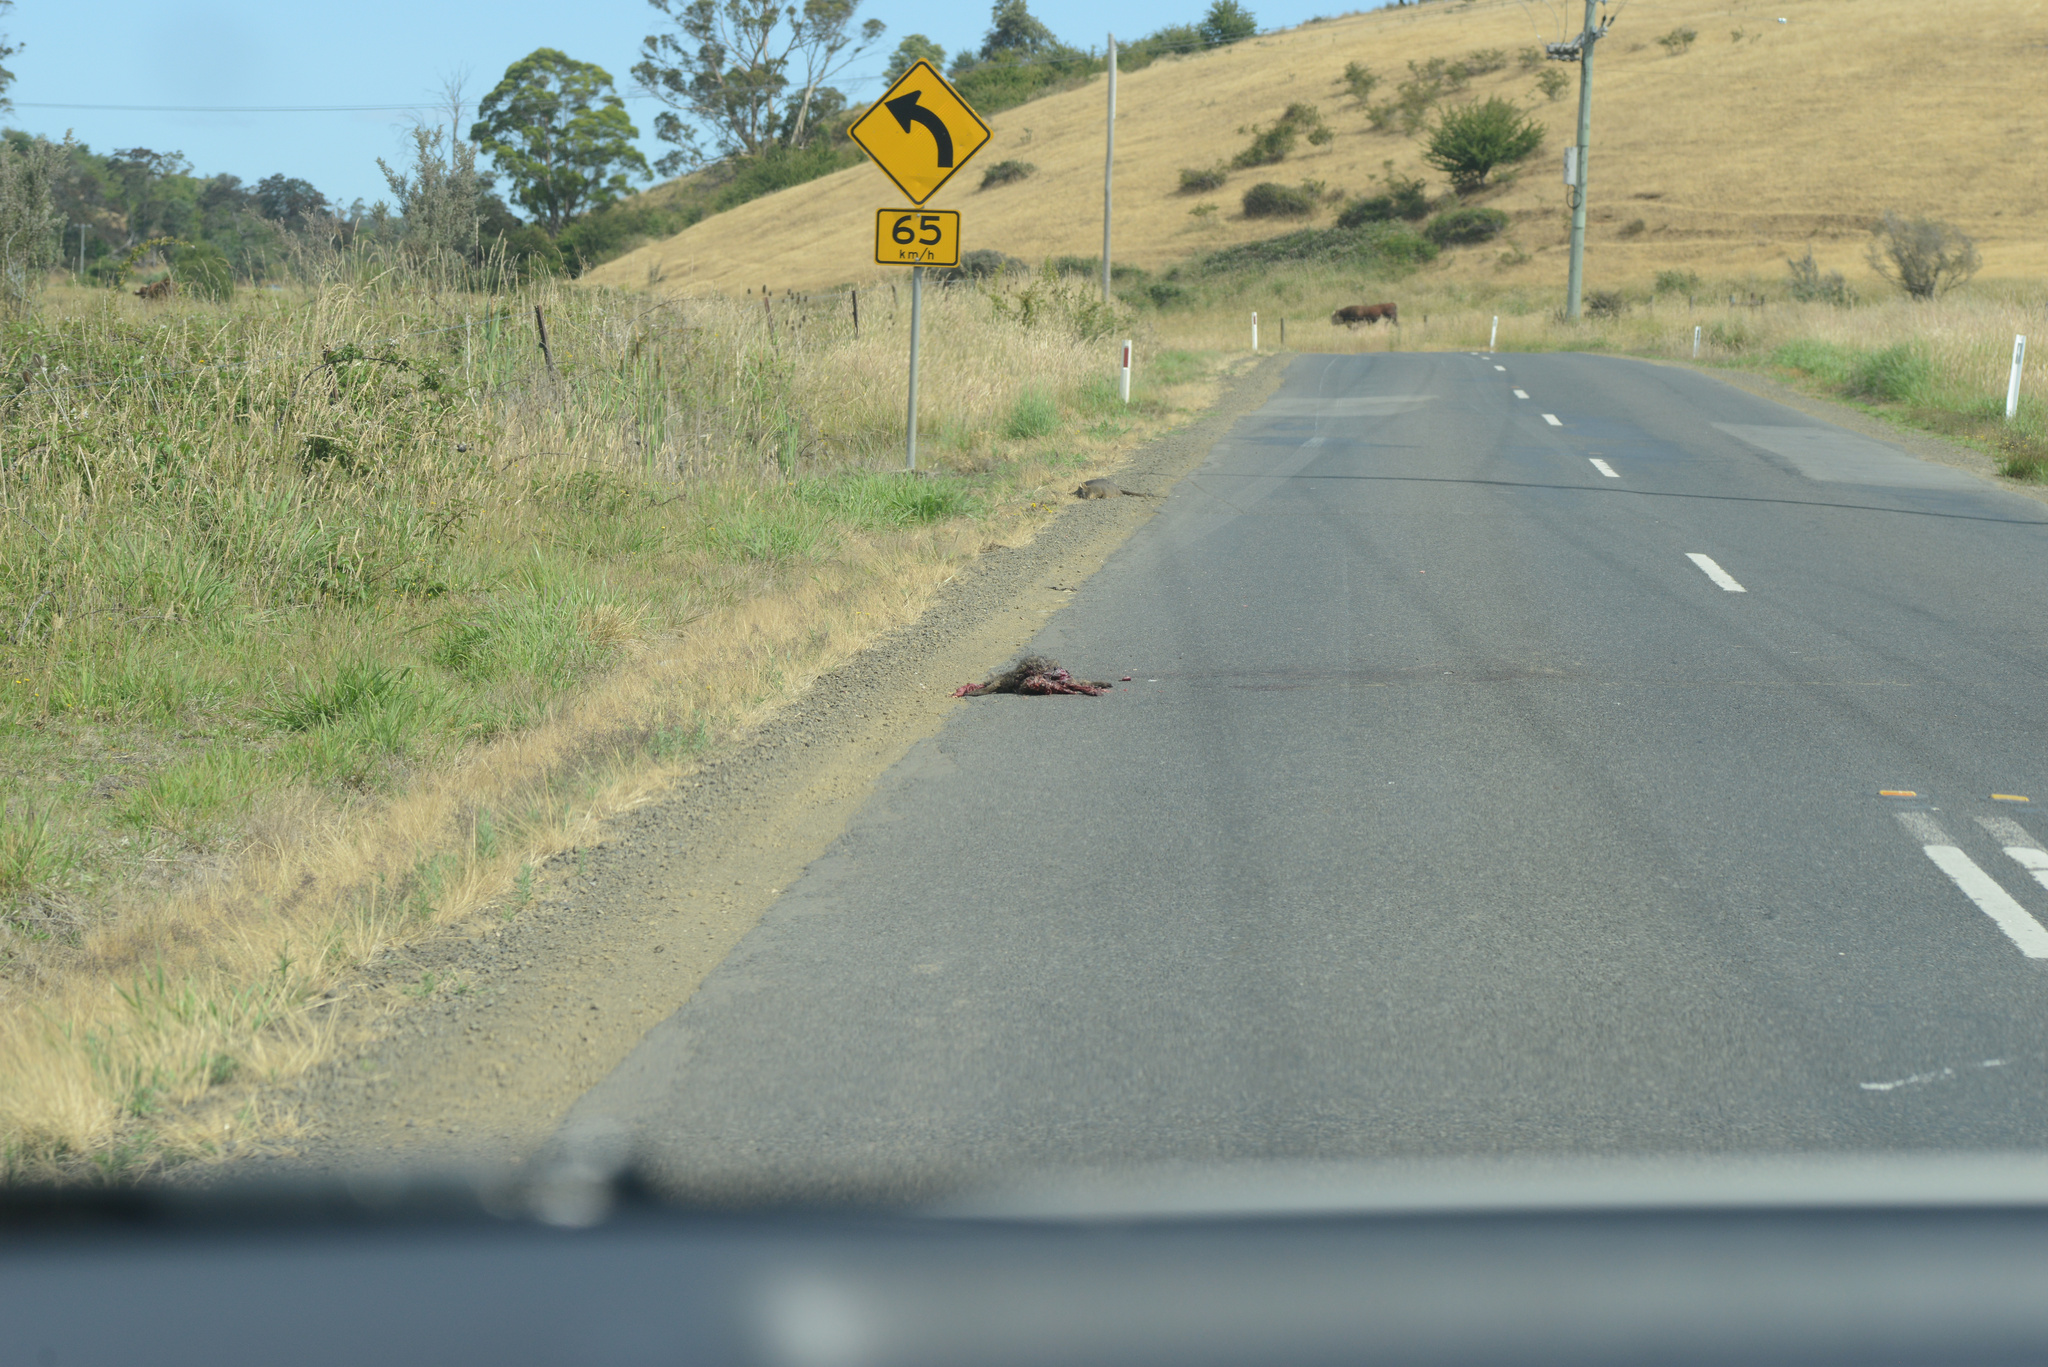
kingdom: Animalia
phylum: Chordata
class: Mammalia
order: Diprotodontia
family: Macropodidae
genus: Thylogale
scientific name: Thylogale billardierii
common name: Tasmanian pademelon
